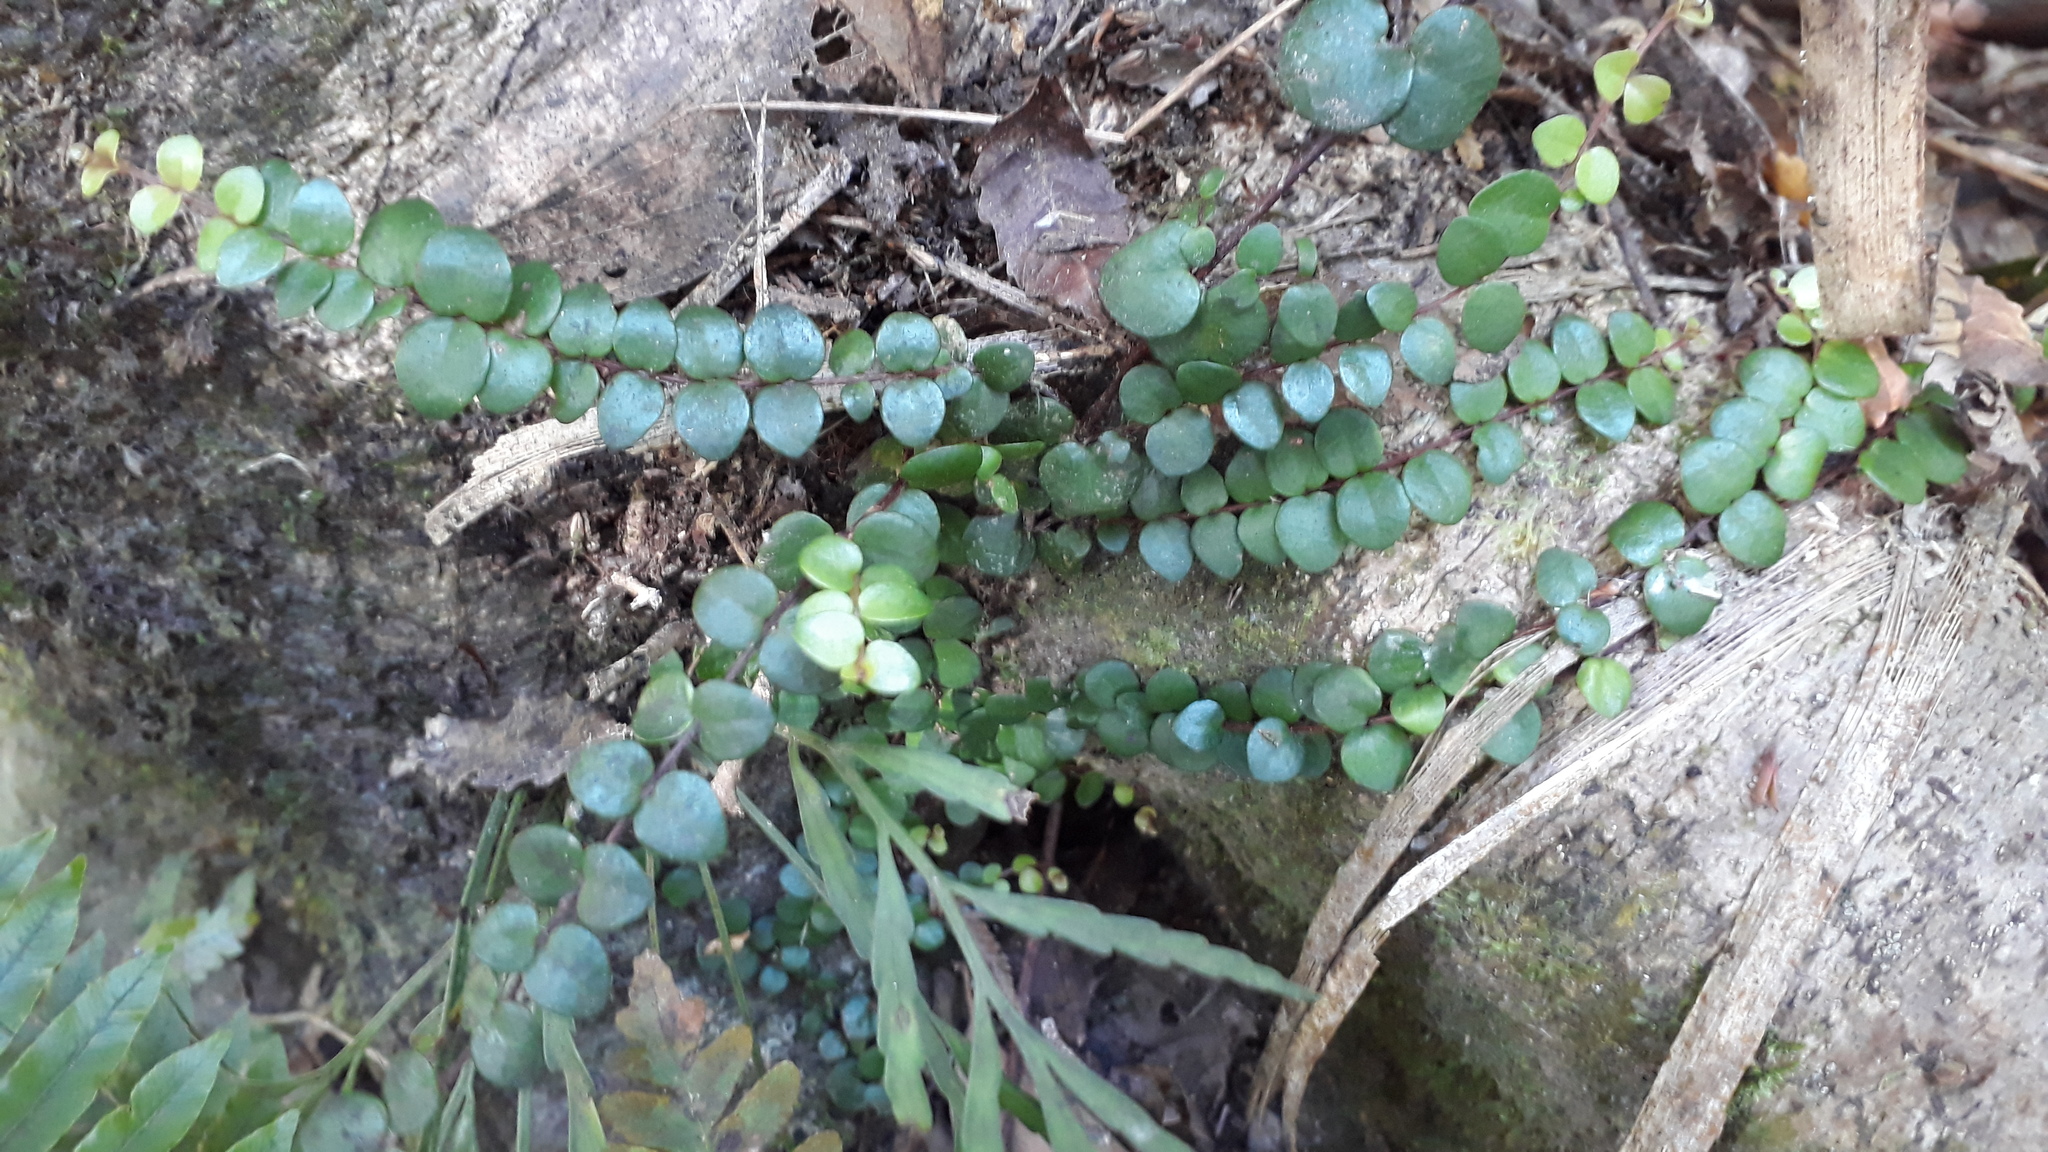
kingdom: Plantae
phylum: Tracheophyta
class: Magnoliopsida
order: Myrtales
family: Myrtaceae
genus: Metrosideros
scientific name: Metrosideros perforata
